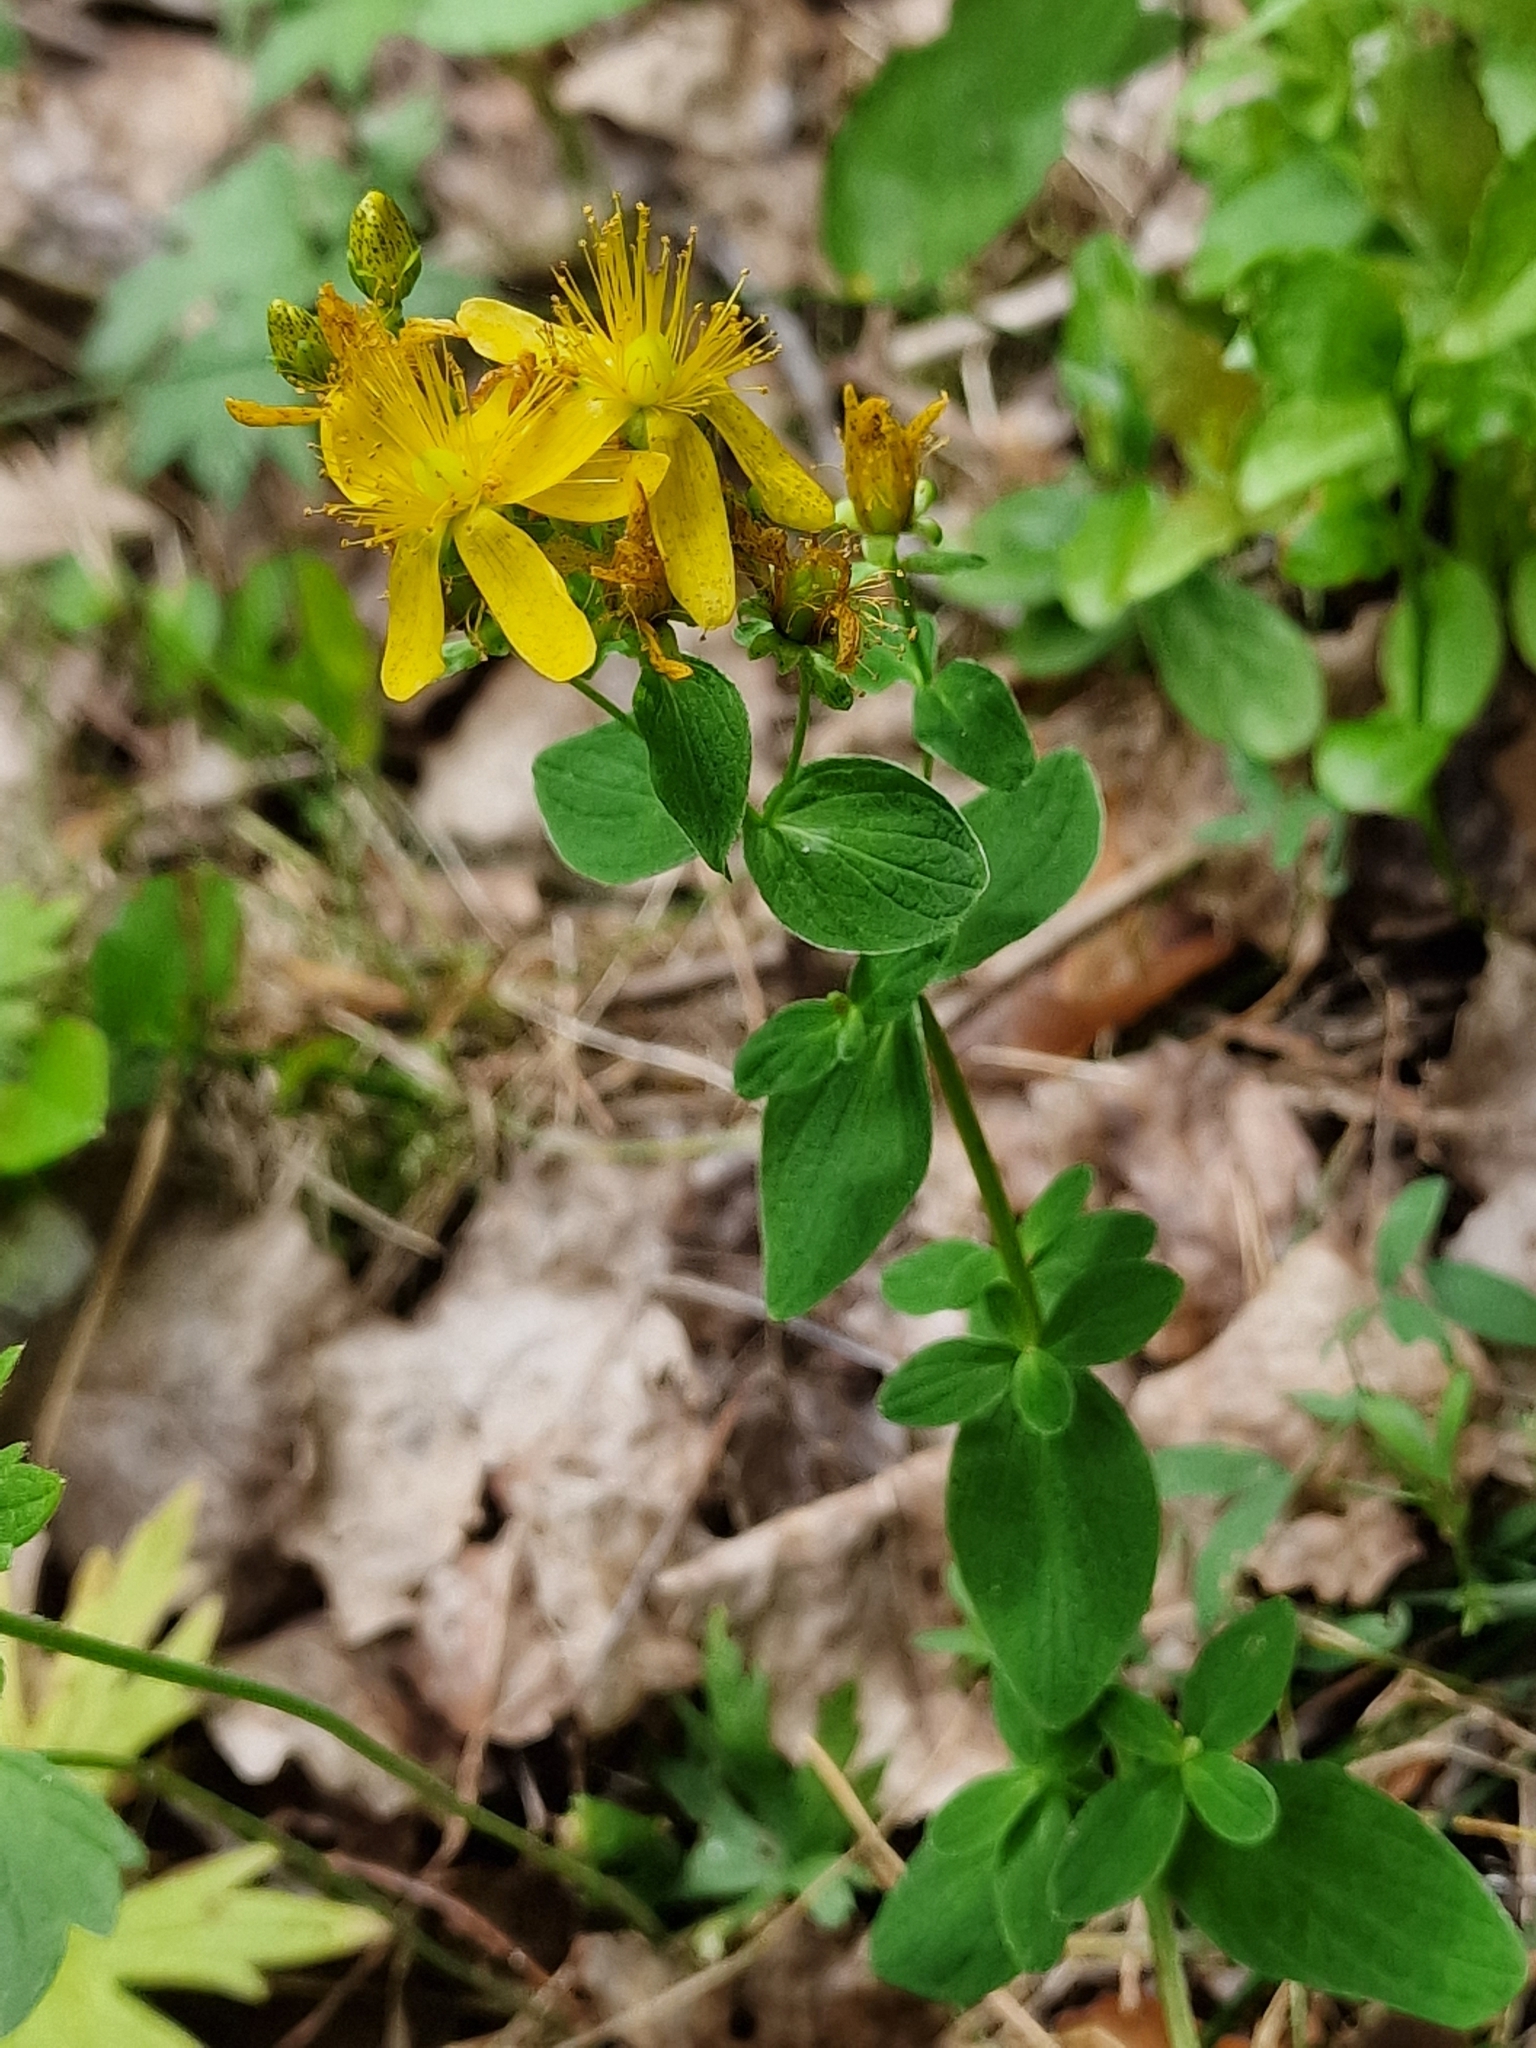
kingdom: Plantae
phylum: Tracheophyta
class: Magnoliopsida
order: Malpighiales
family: Hypericaceae
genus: Hypericum
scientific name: Hypericum maculatum
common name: Imperforate st. john's-wort
